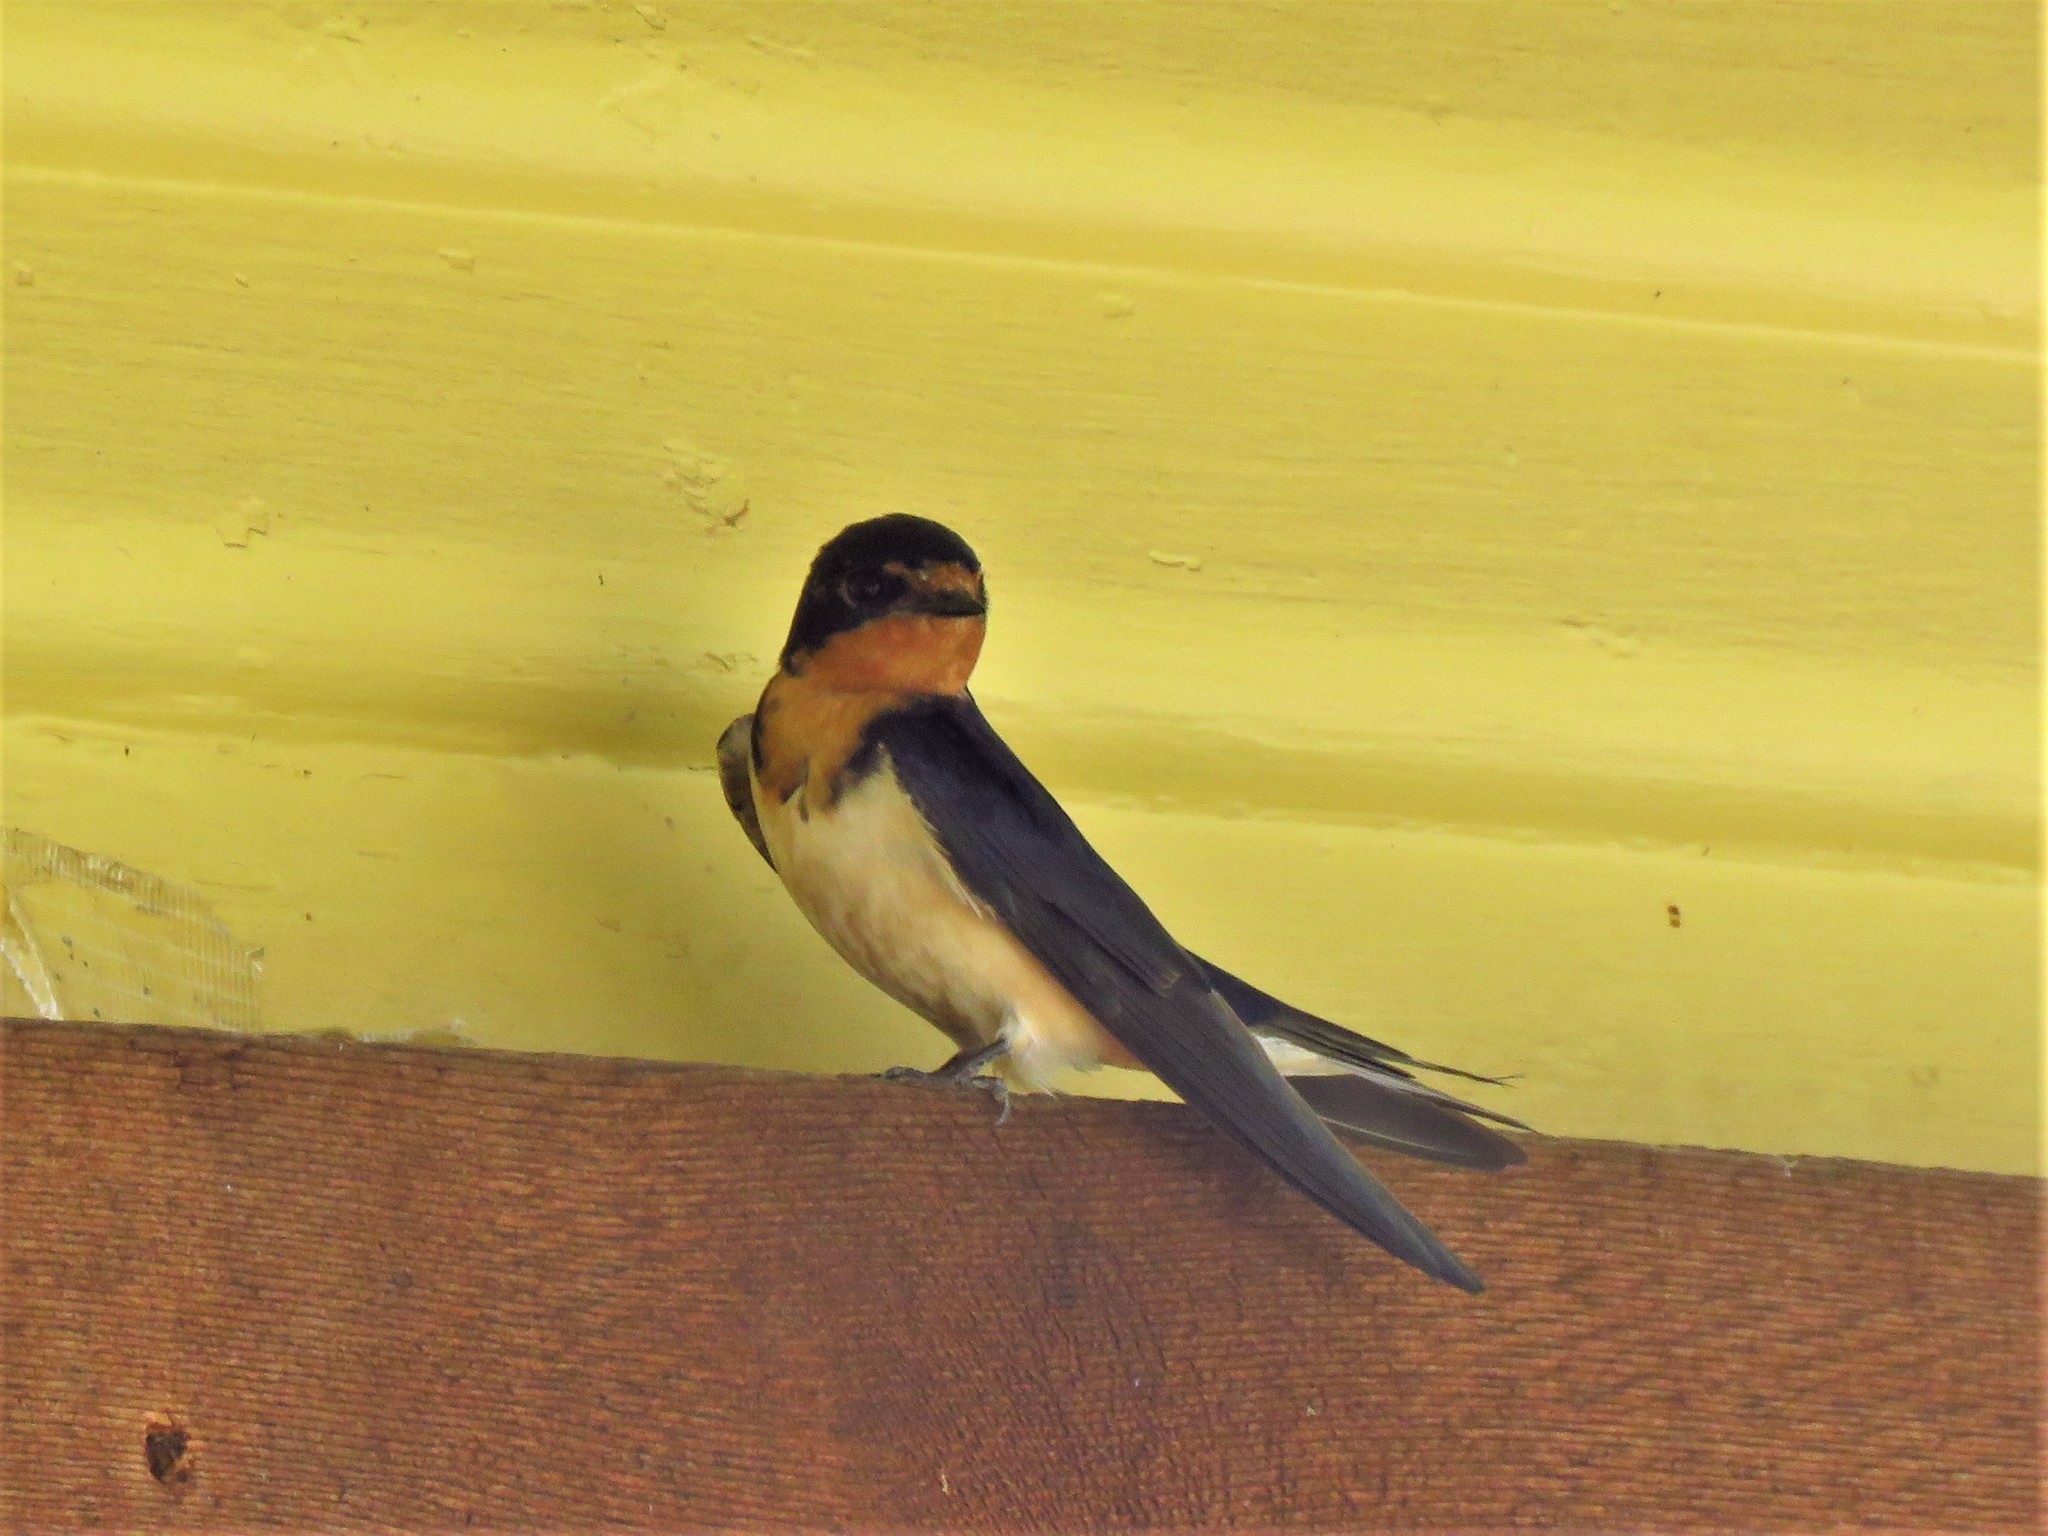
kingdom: Animalia
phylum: Chordata
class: Aves
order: Passeriformes
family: Hirundinidae
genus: Hirundo
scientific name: Hirundo rustica
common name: Barn swallow
